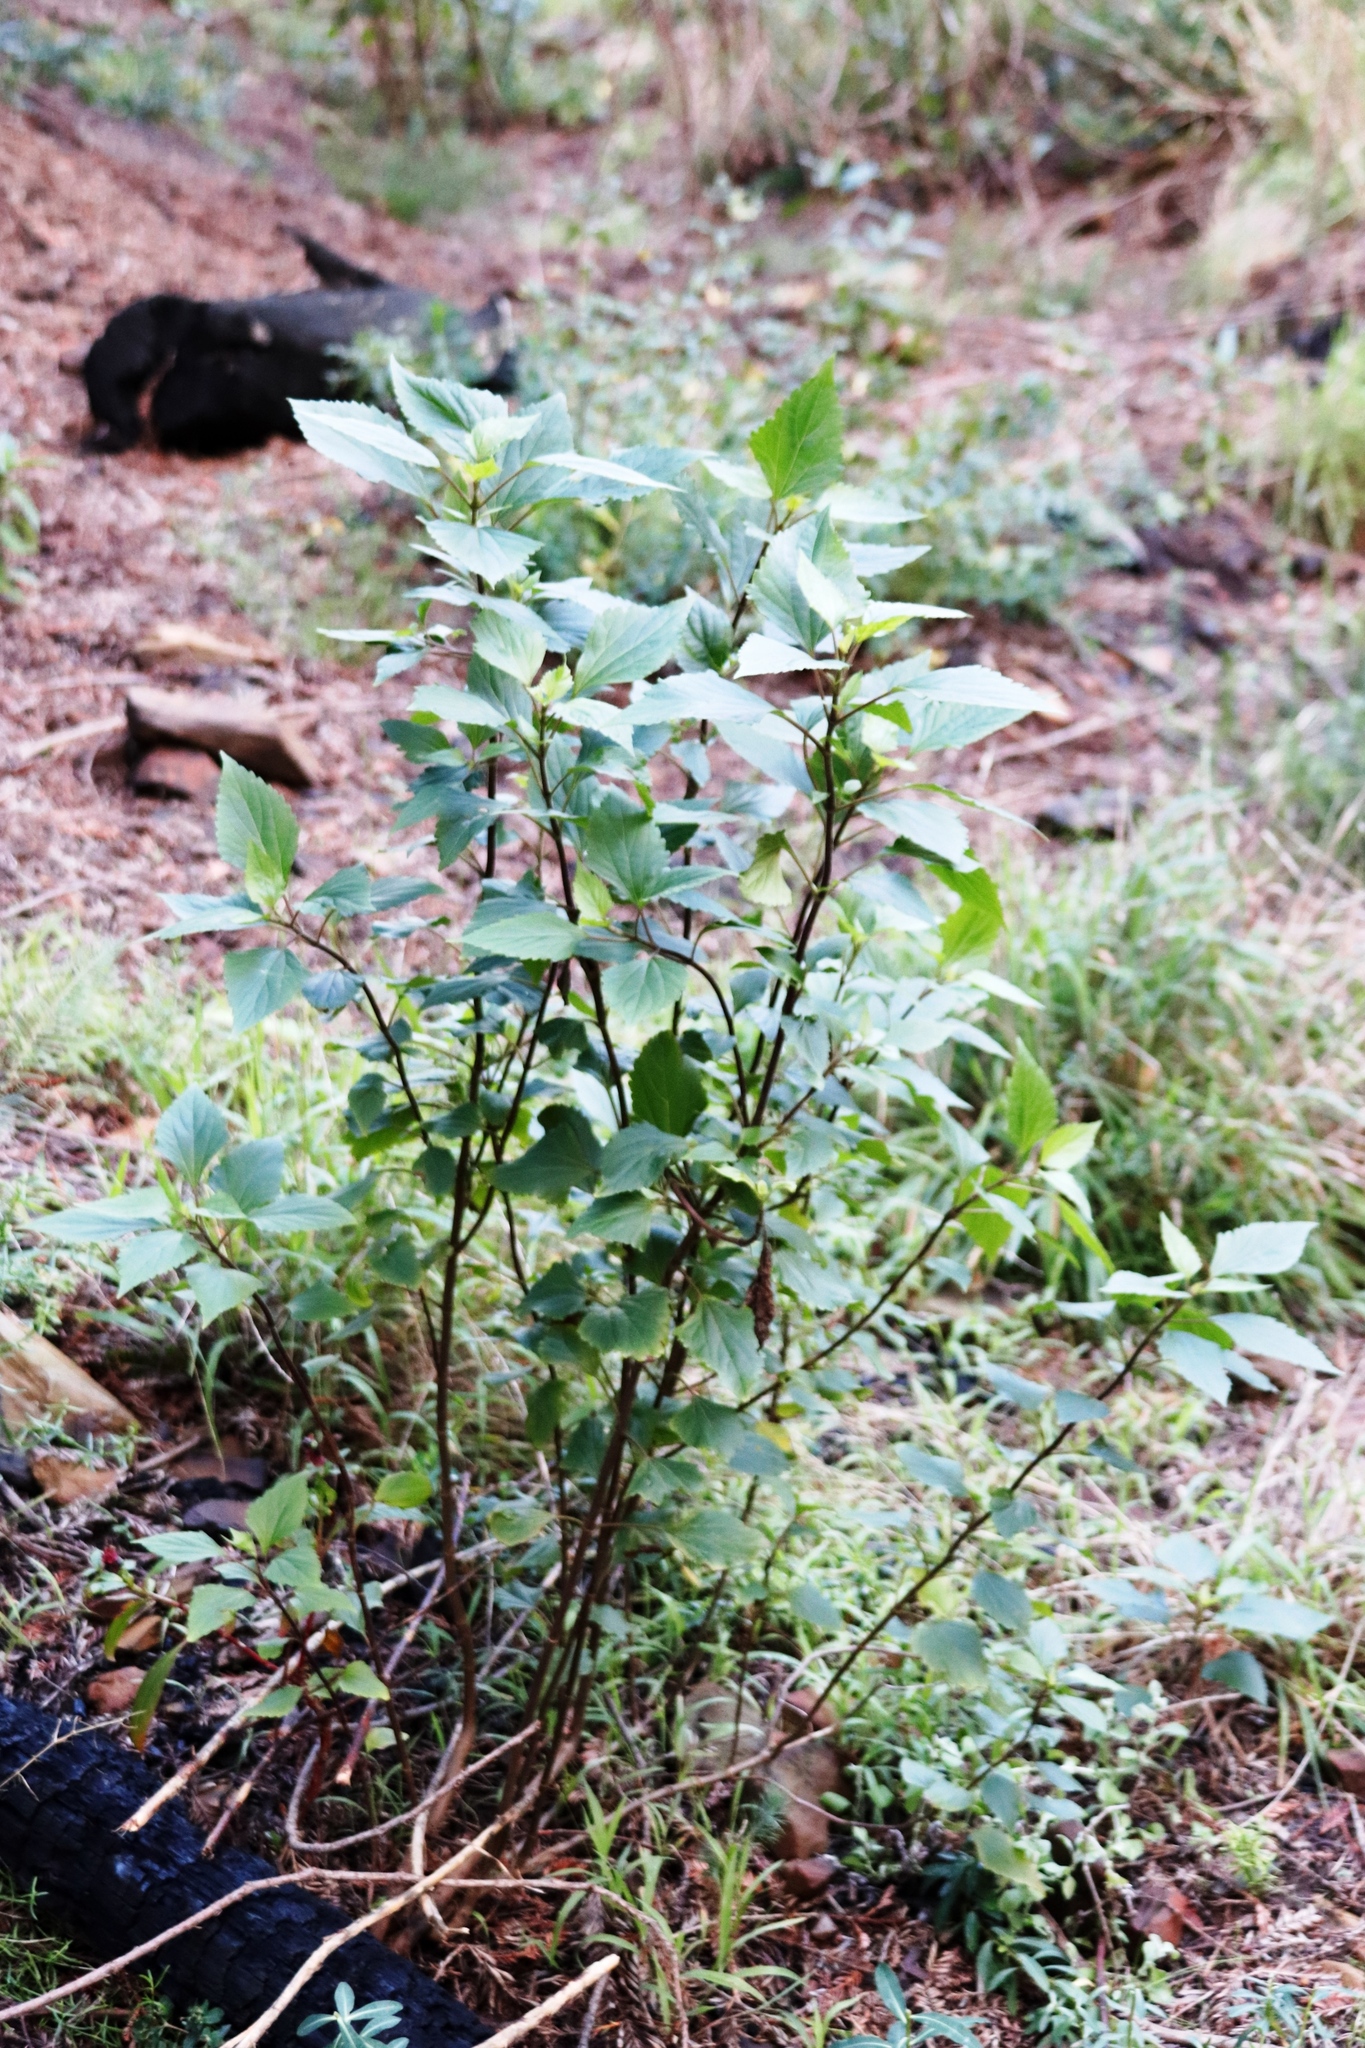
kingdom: Plantae
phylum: Tracheophyta
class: Magnoliopsida
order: Asterales
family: Asteraceae
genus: Ageratina
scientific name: Ageratina adenophora
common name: Sticky snakeroot
